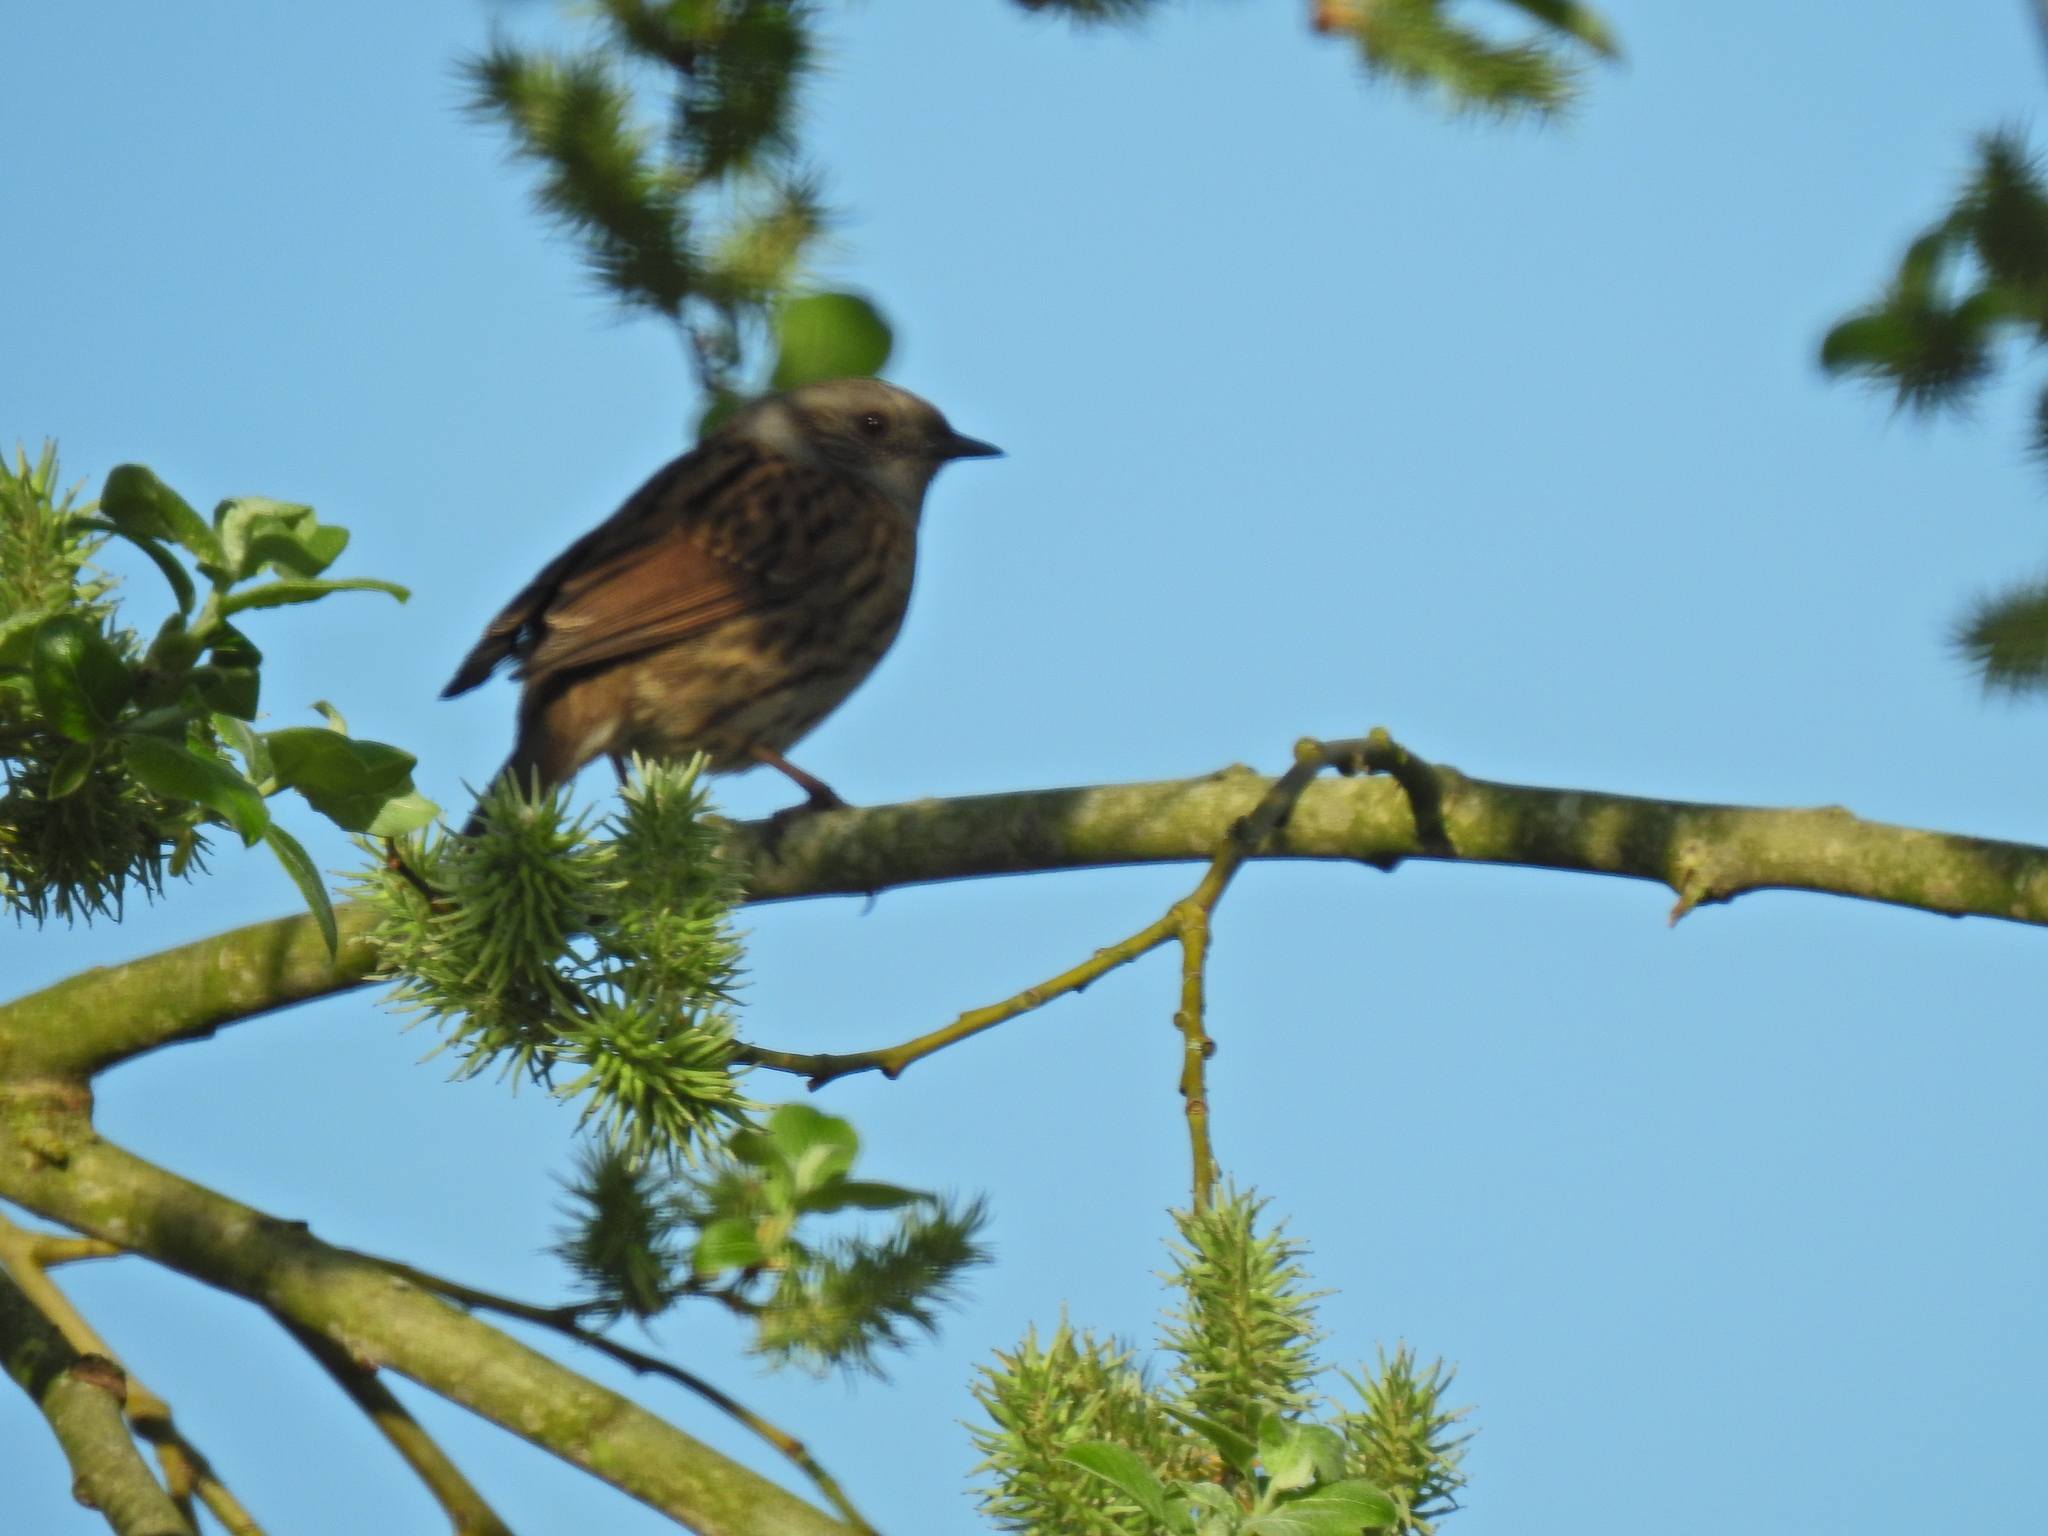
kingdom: Animalia
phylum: Chordata
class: Aves
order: Passeriformes
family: Prunellidae
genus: Prunella
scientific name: Prunella modularis
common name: Dunnock
